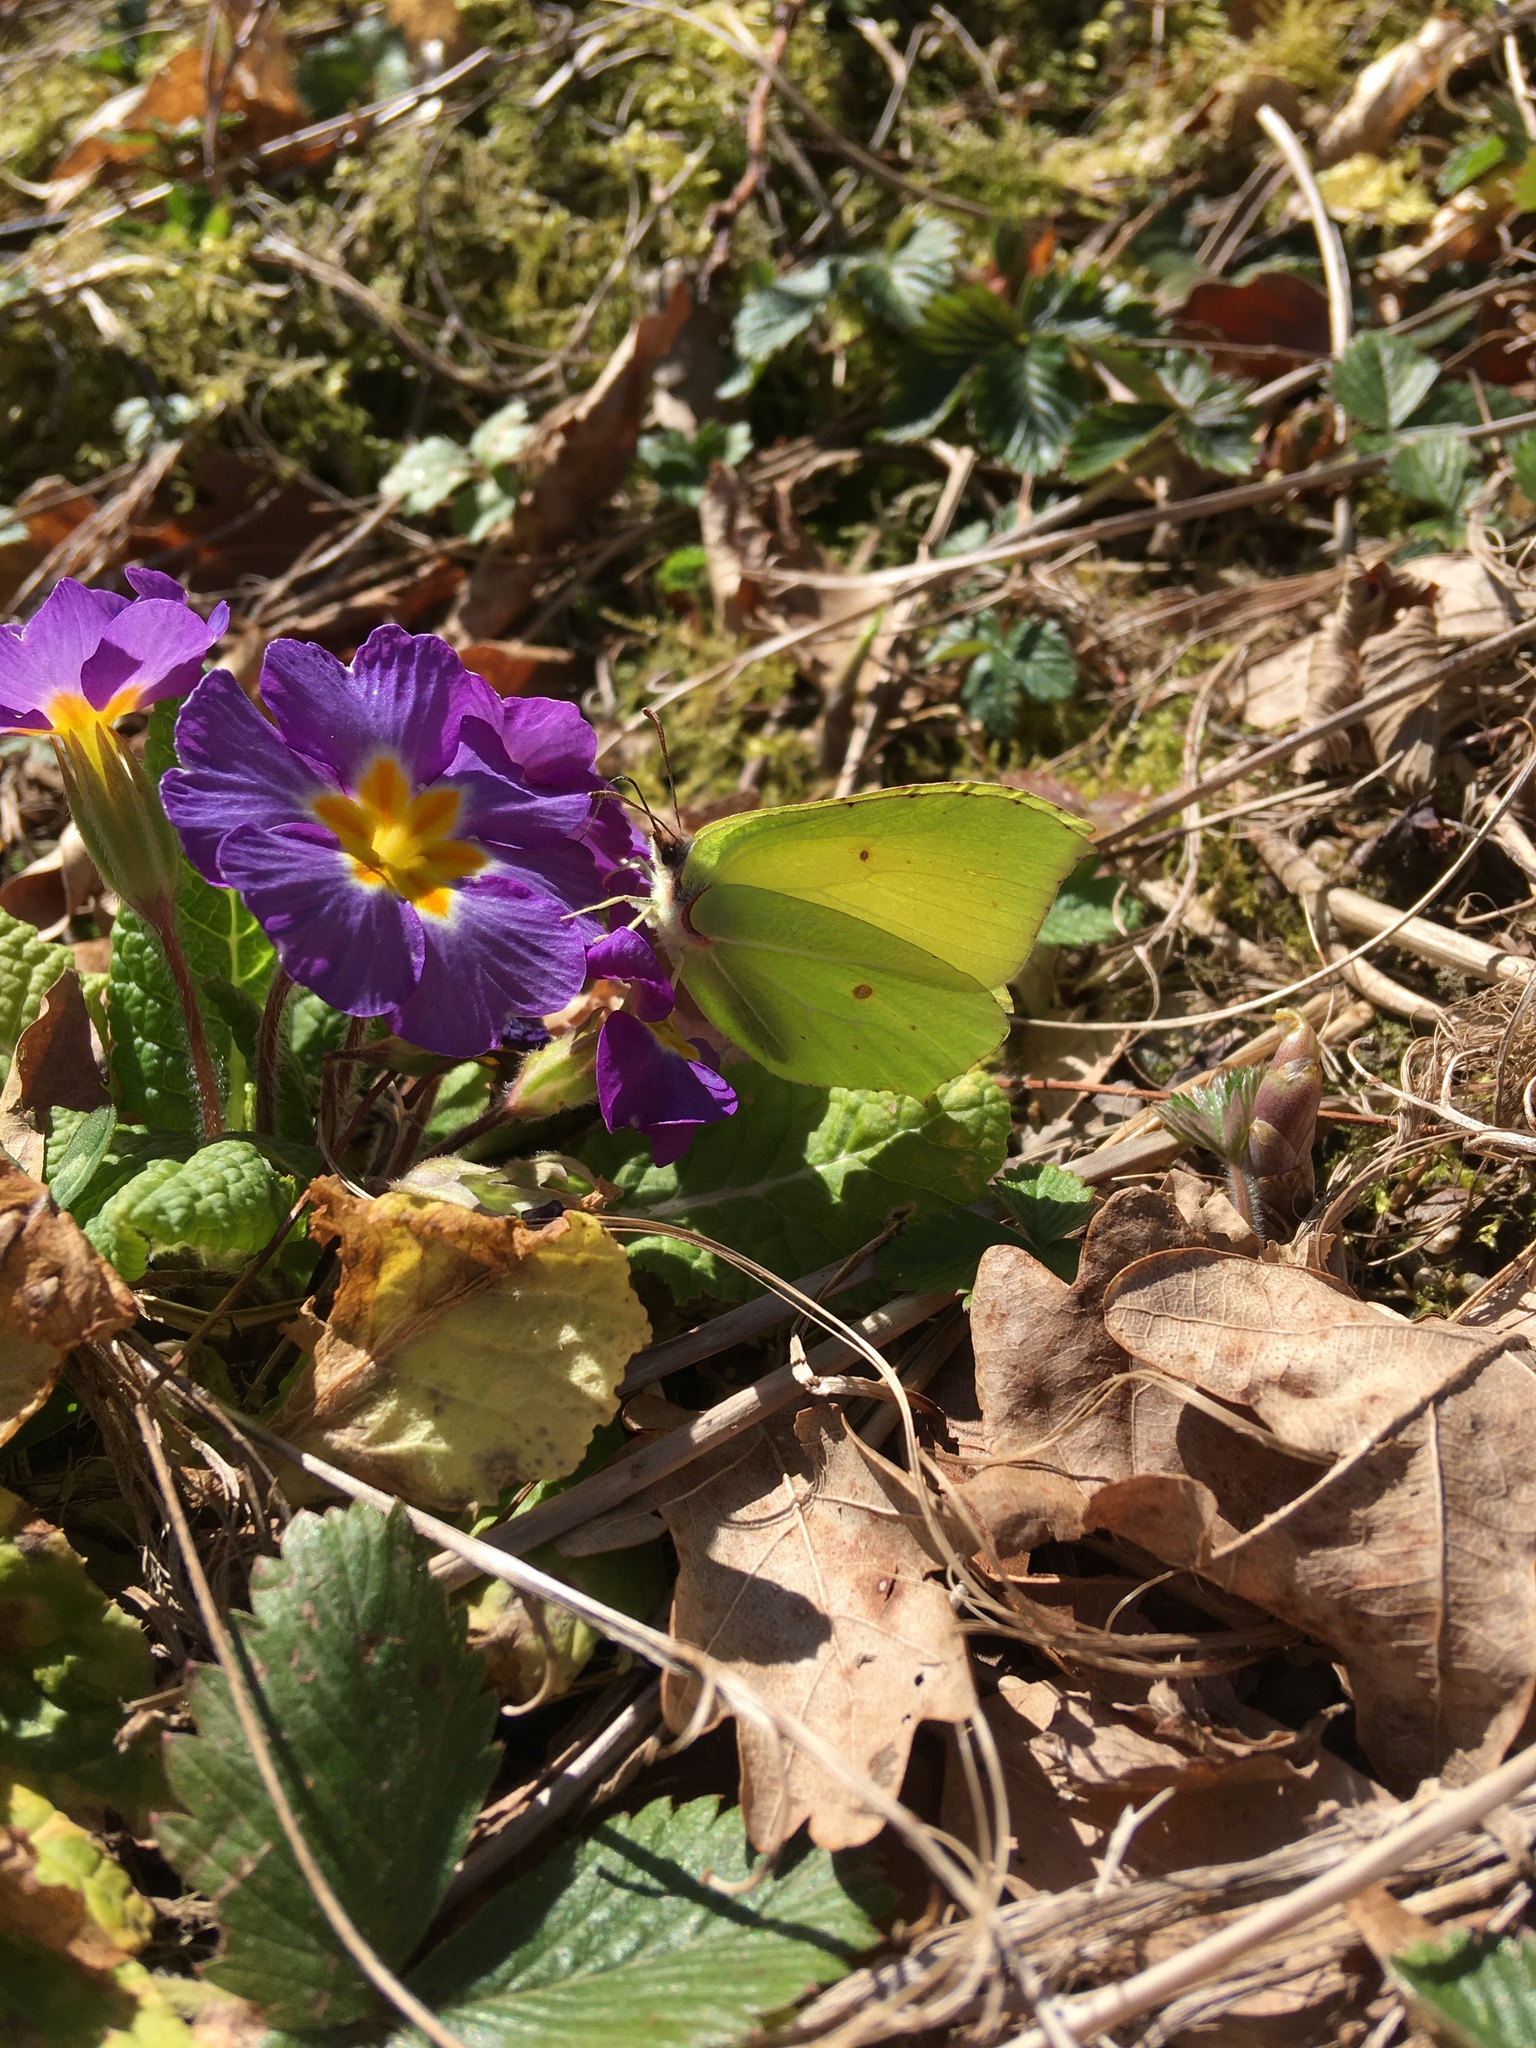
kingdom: Animalia
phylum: Arthropoda
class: Insecta
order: Lepidoptera
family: Pieridae
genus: Gonepteryx
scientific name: Gonepteryx rhamni
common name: Brimstone
